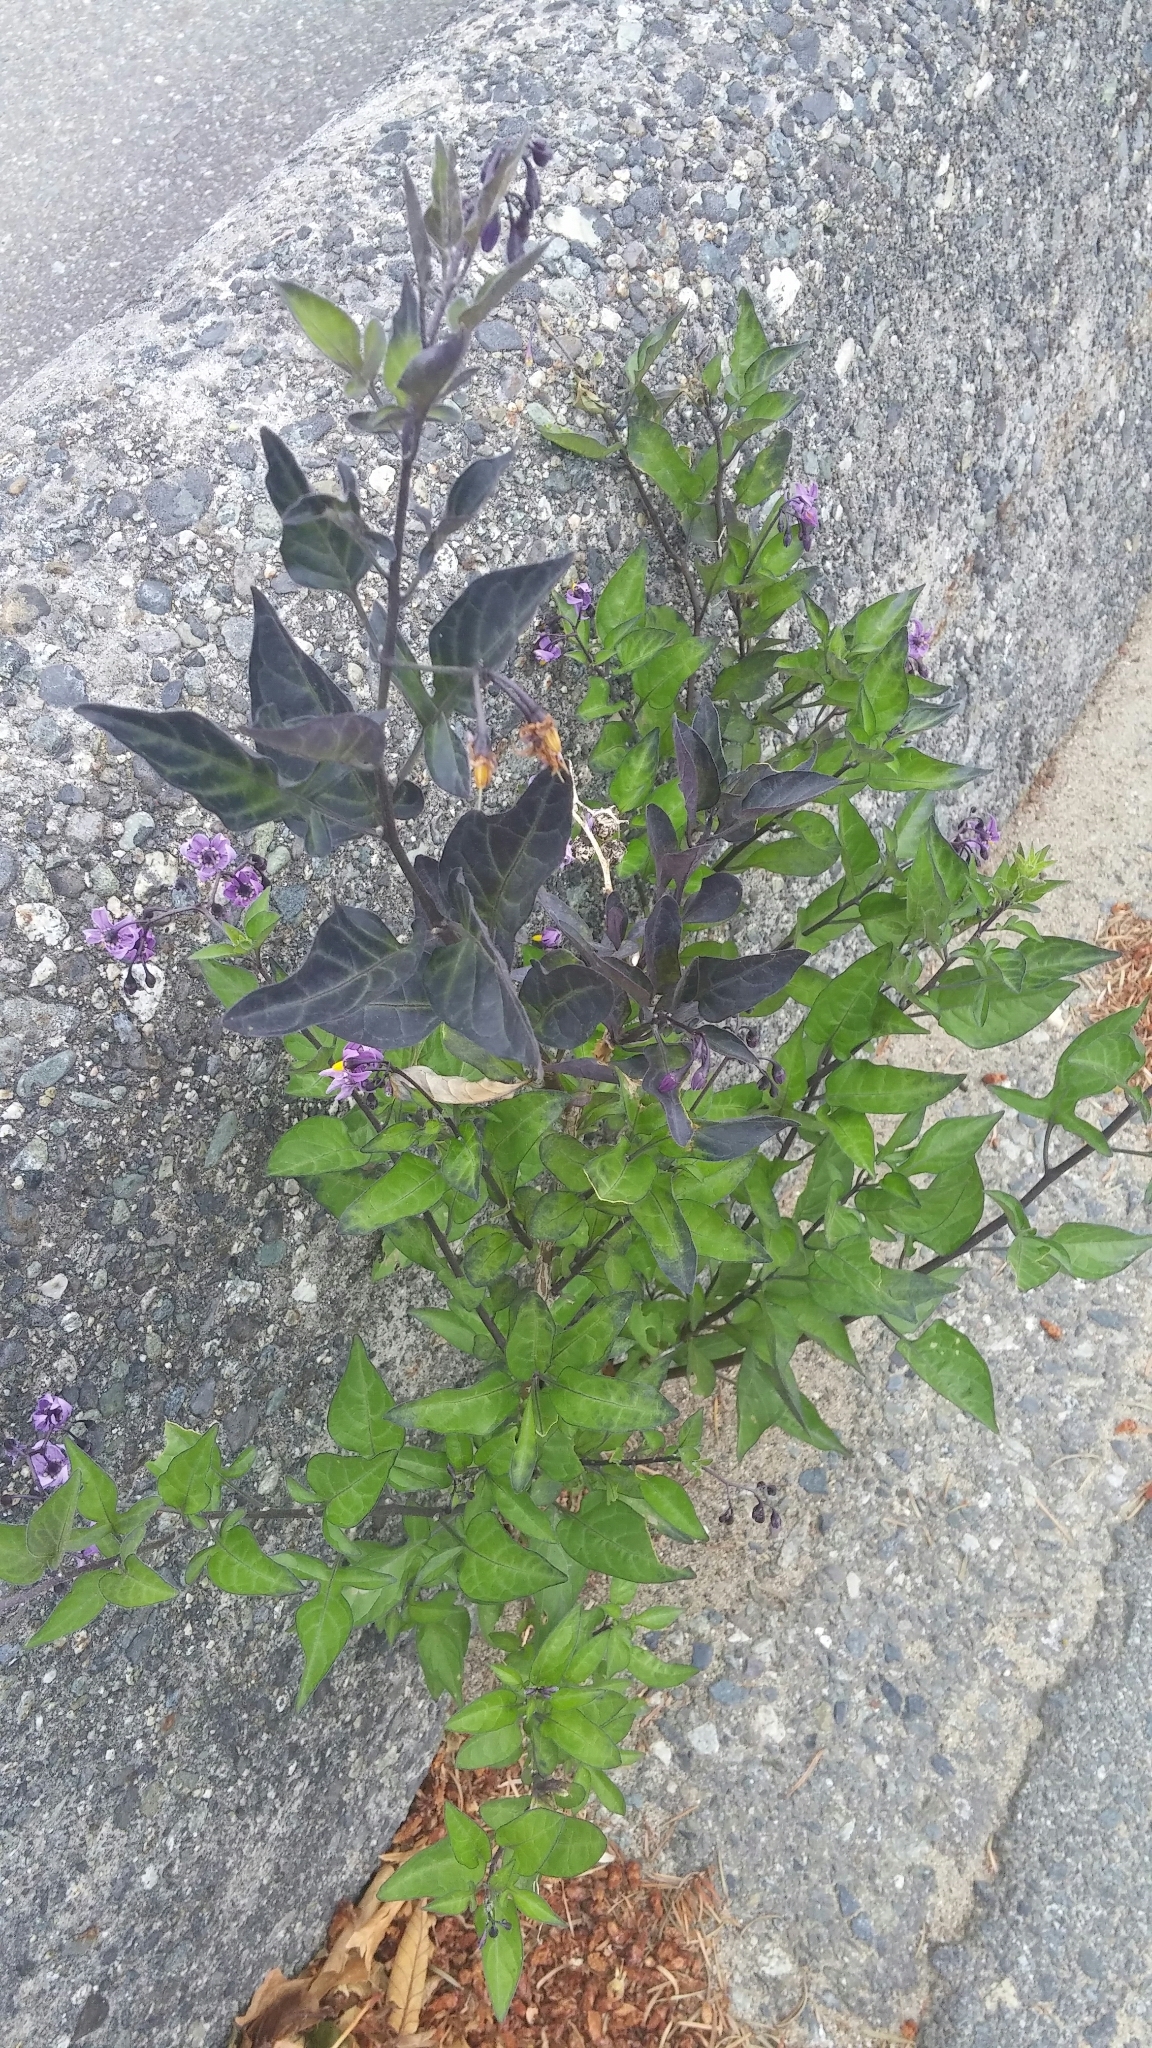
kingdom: Plantae
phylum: Tracheophyta
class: Magnoliopsida
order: Solanales
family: Solanaceae
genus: Solanum
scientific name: Solanum dulcamara
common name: Climbing nightshade
